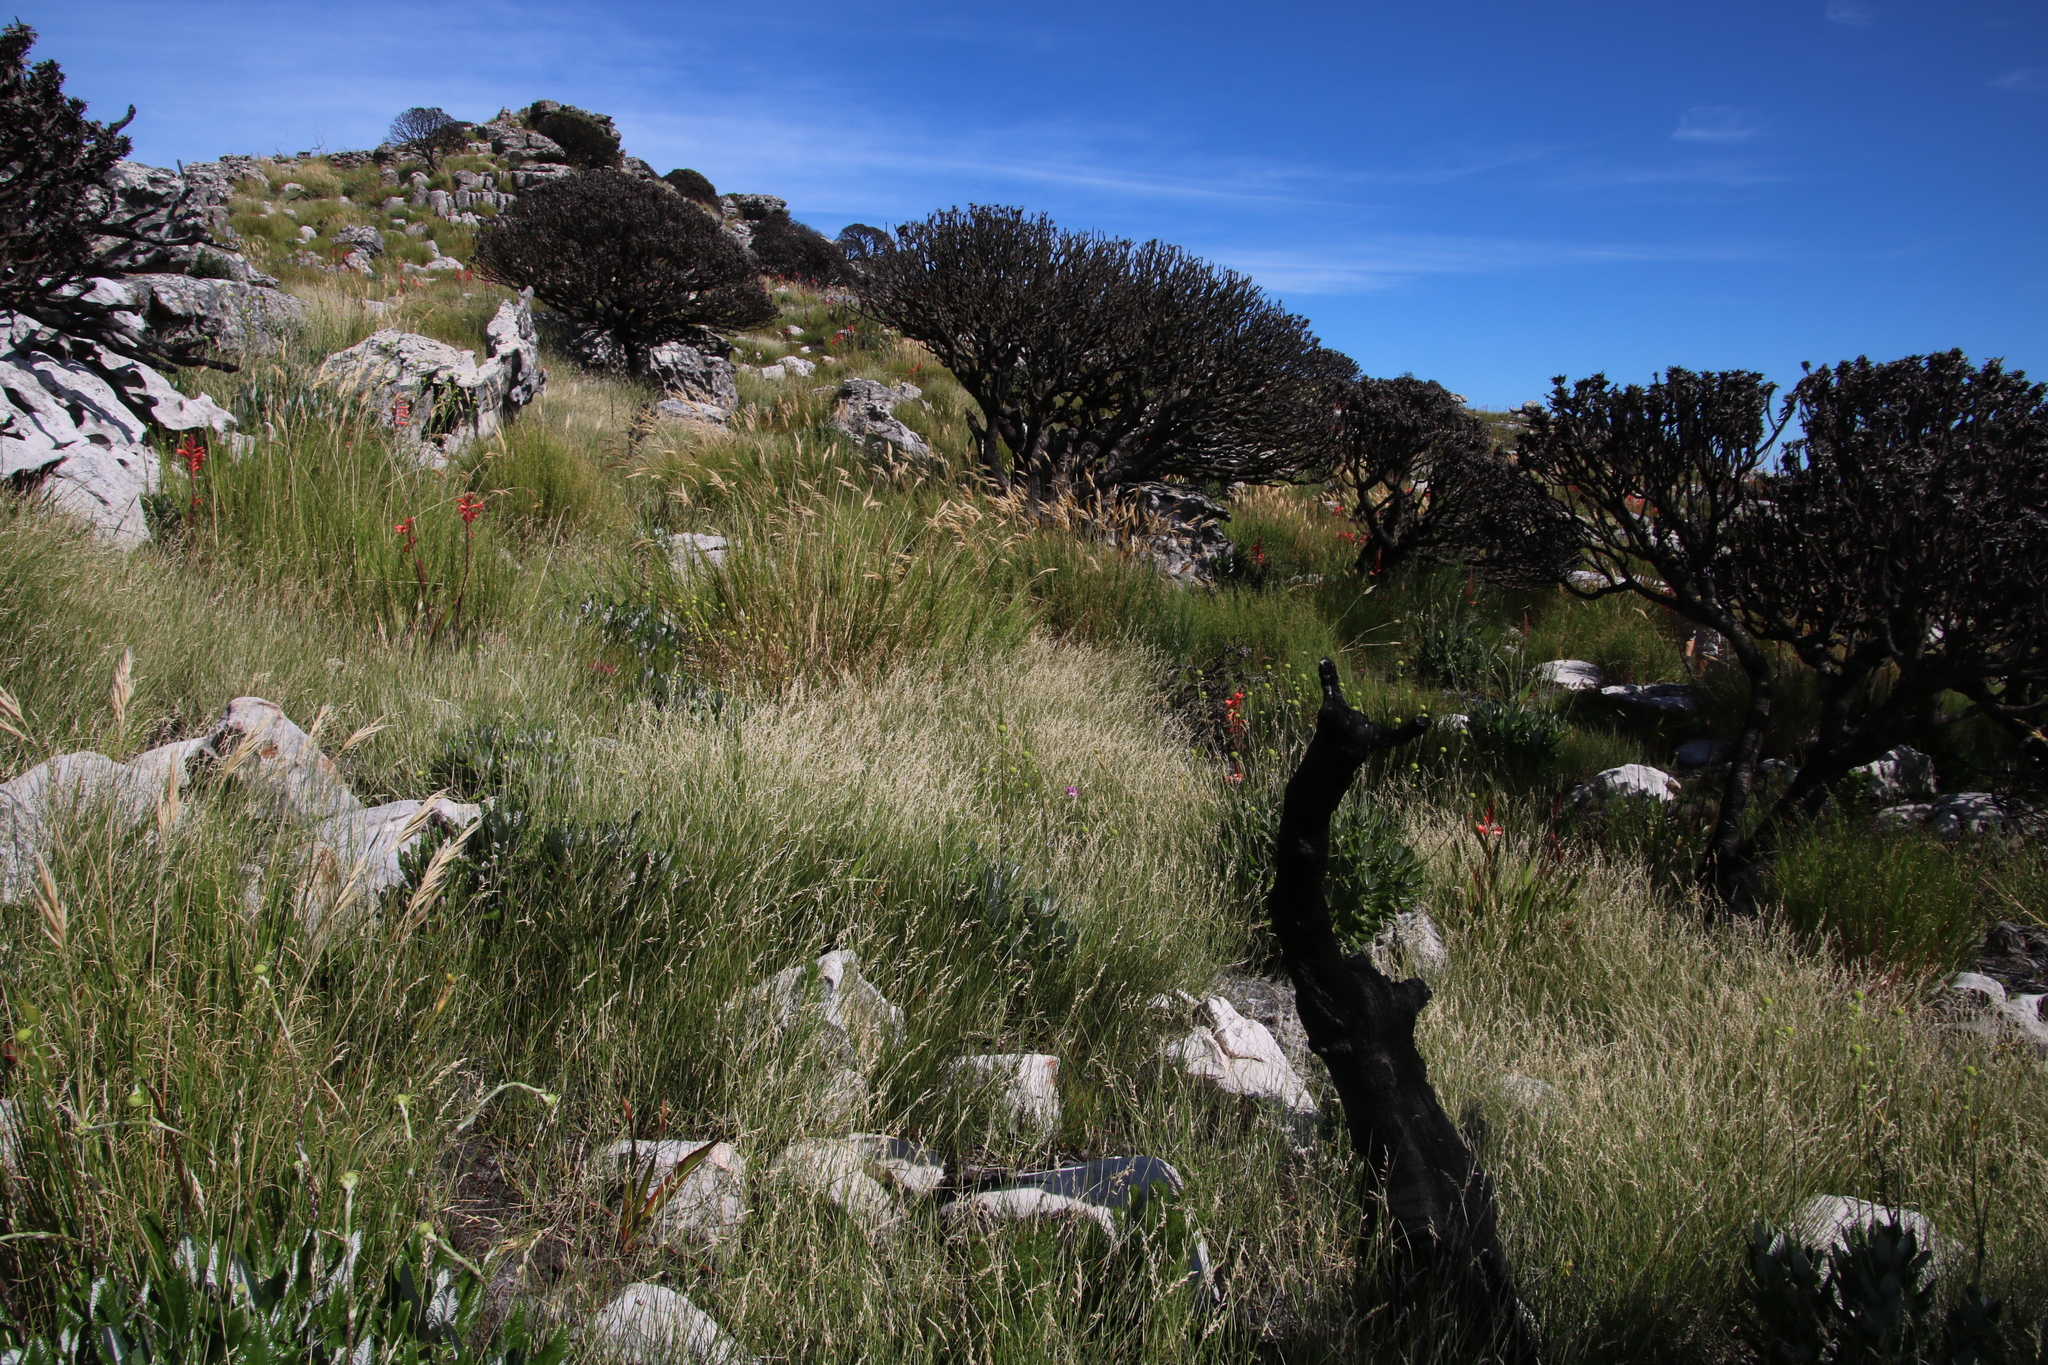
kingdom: Plantae
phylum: Tracheophyta
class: Liliopsida
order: Poales
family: Poaceae
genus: Ehrharta
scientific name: Ehrharta ramosa
